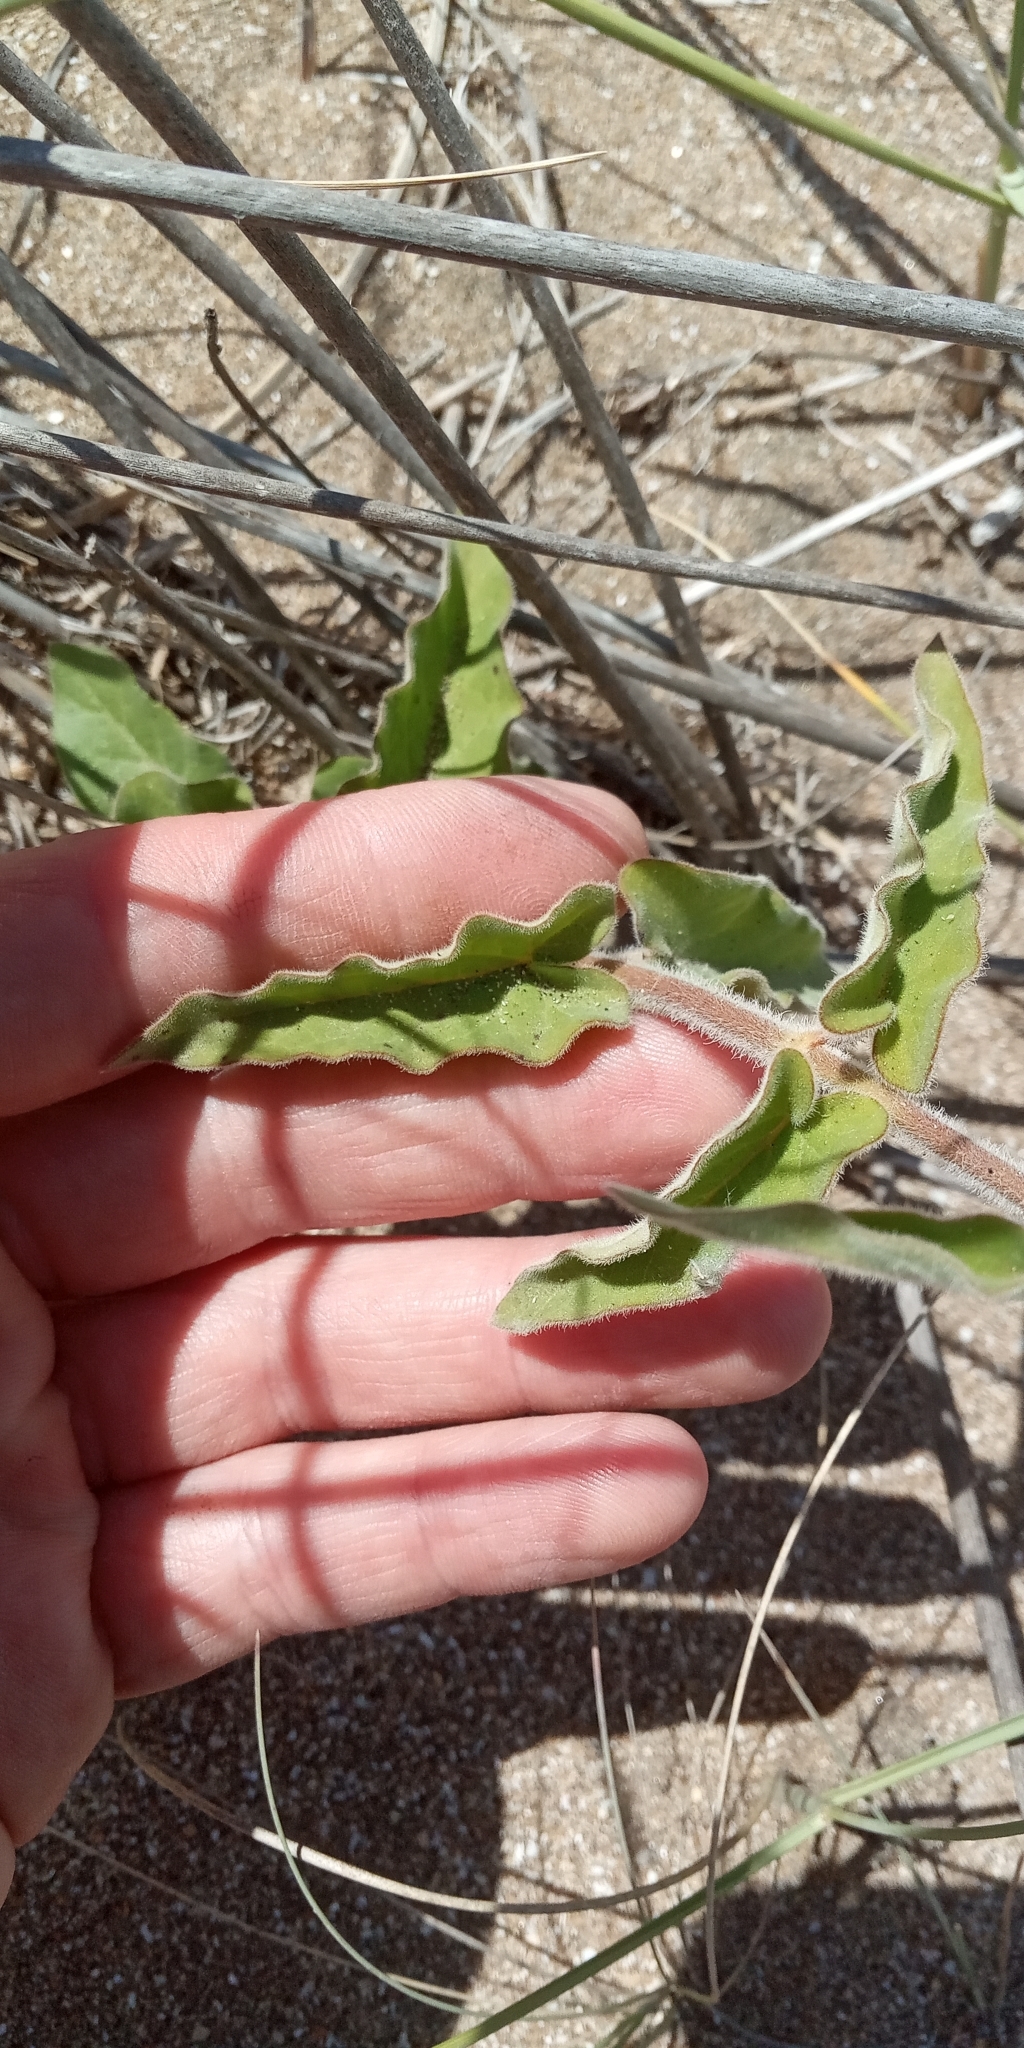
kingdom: Plantae
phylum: Tracheophyta
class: Magnoliopsida
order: Gentianales
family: Apocynaceae
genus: Oxypetalum
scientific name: Oxypetalum solanoides
